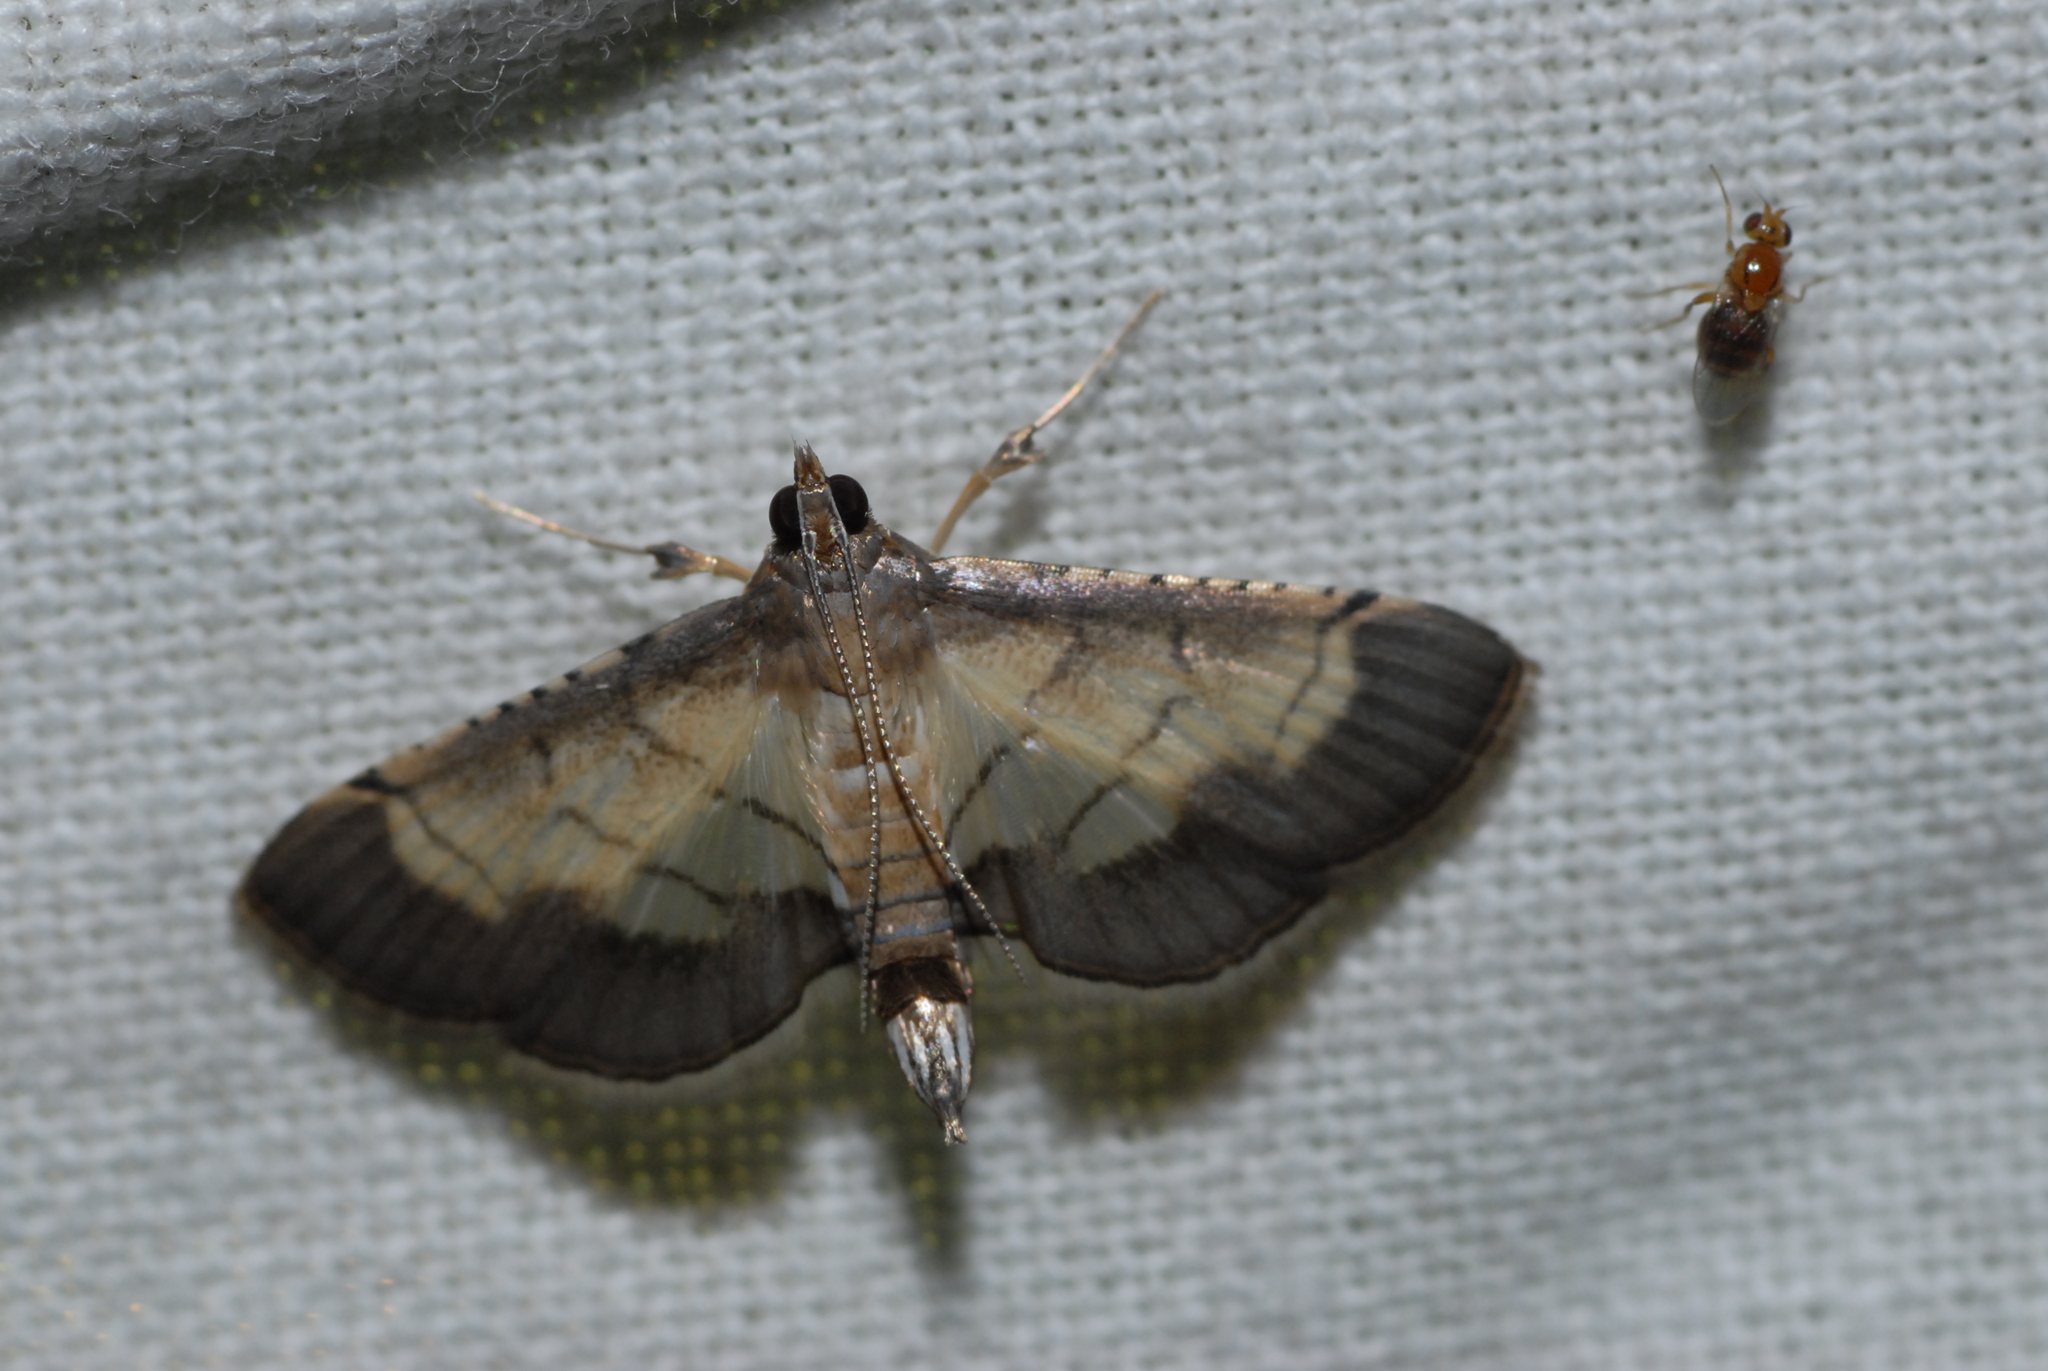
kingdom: Animalia
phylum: Arthropoda
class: Insecta
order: Lepidoptera
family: Crambidae
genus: Cnaphalocrocis
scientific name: Cnaphalocrocis trebiusalis
